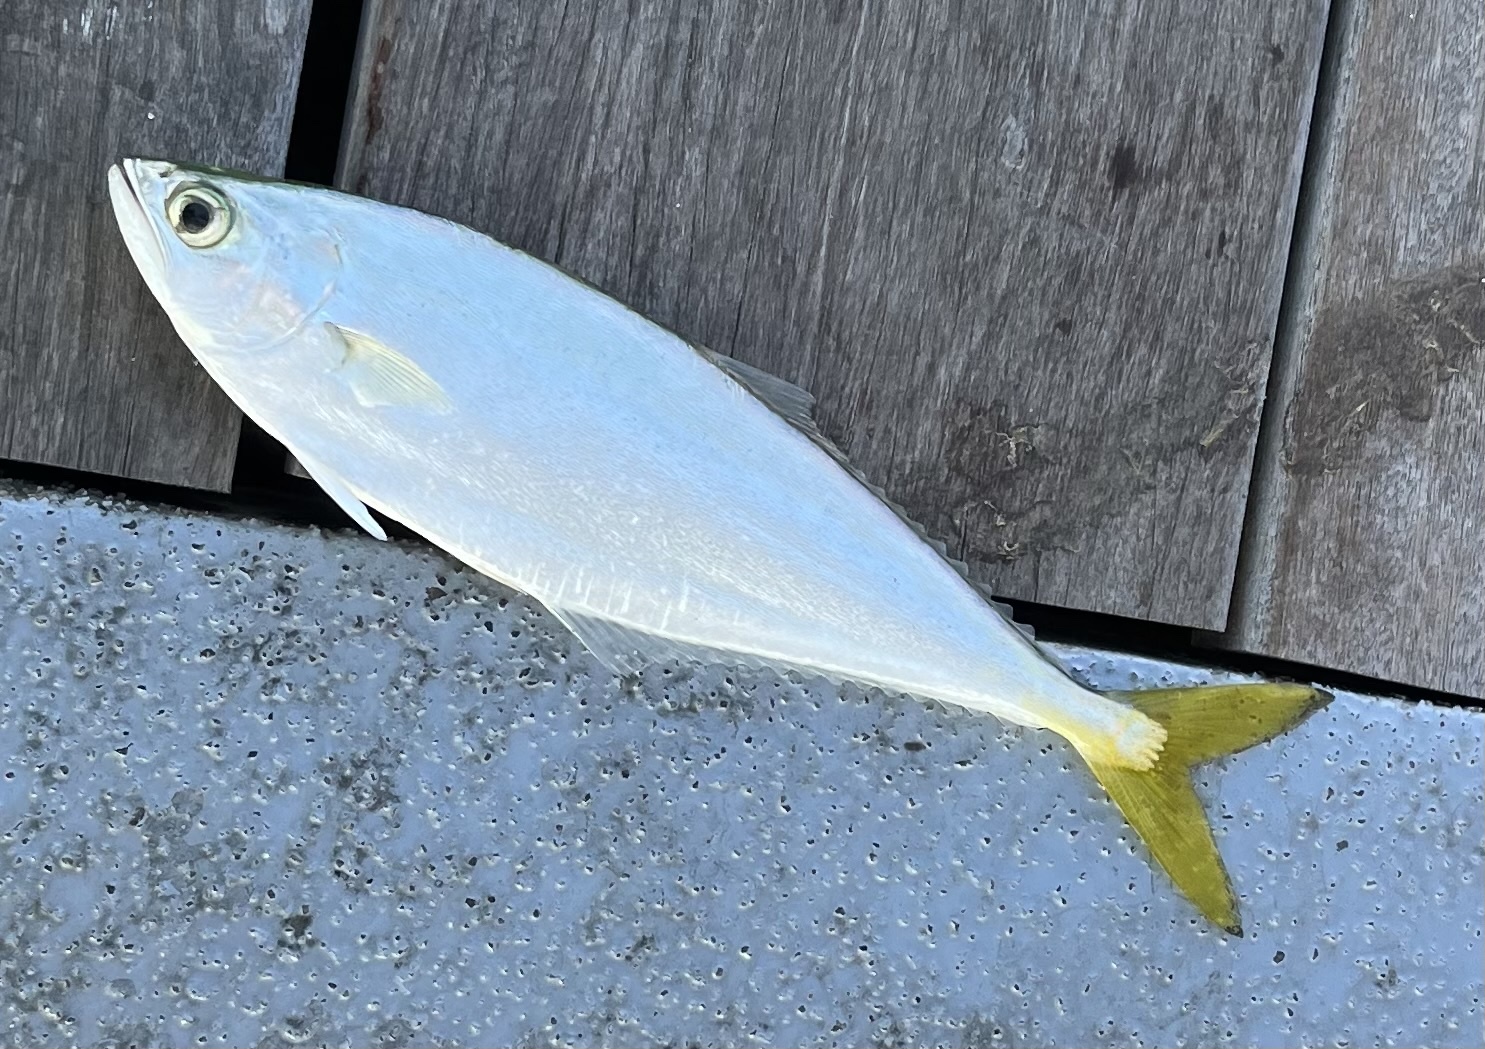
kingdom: Animalia
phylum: Chordata
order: Perciformes
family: Carangidae
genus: Oligoplites
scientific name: Oligoplites saurus
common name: Leatherjacket
